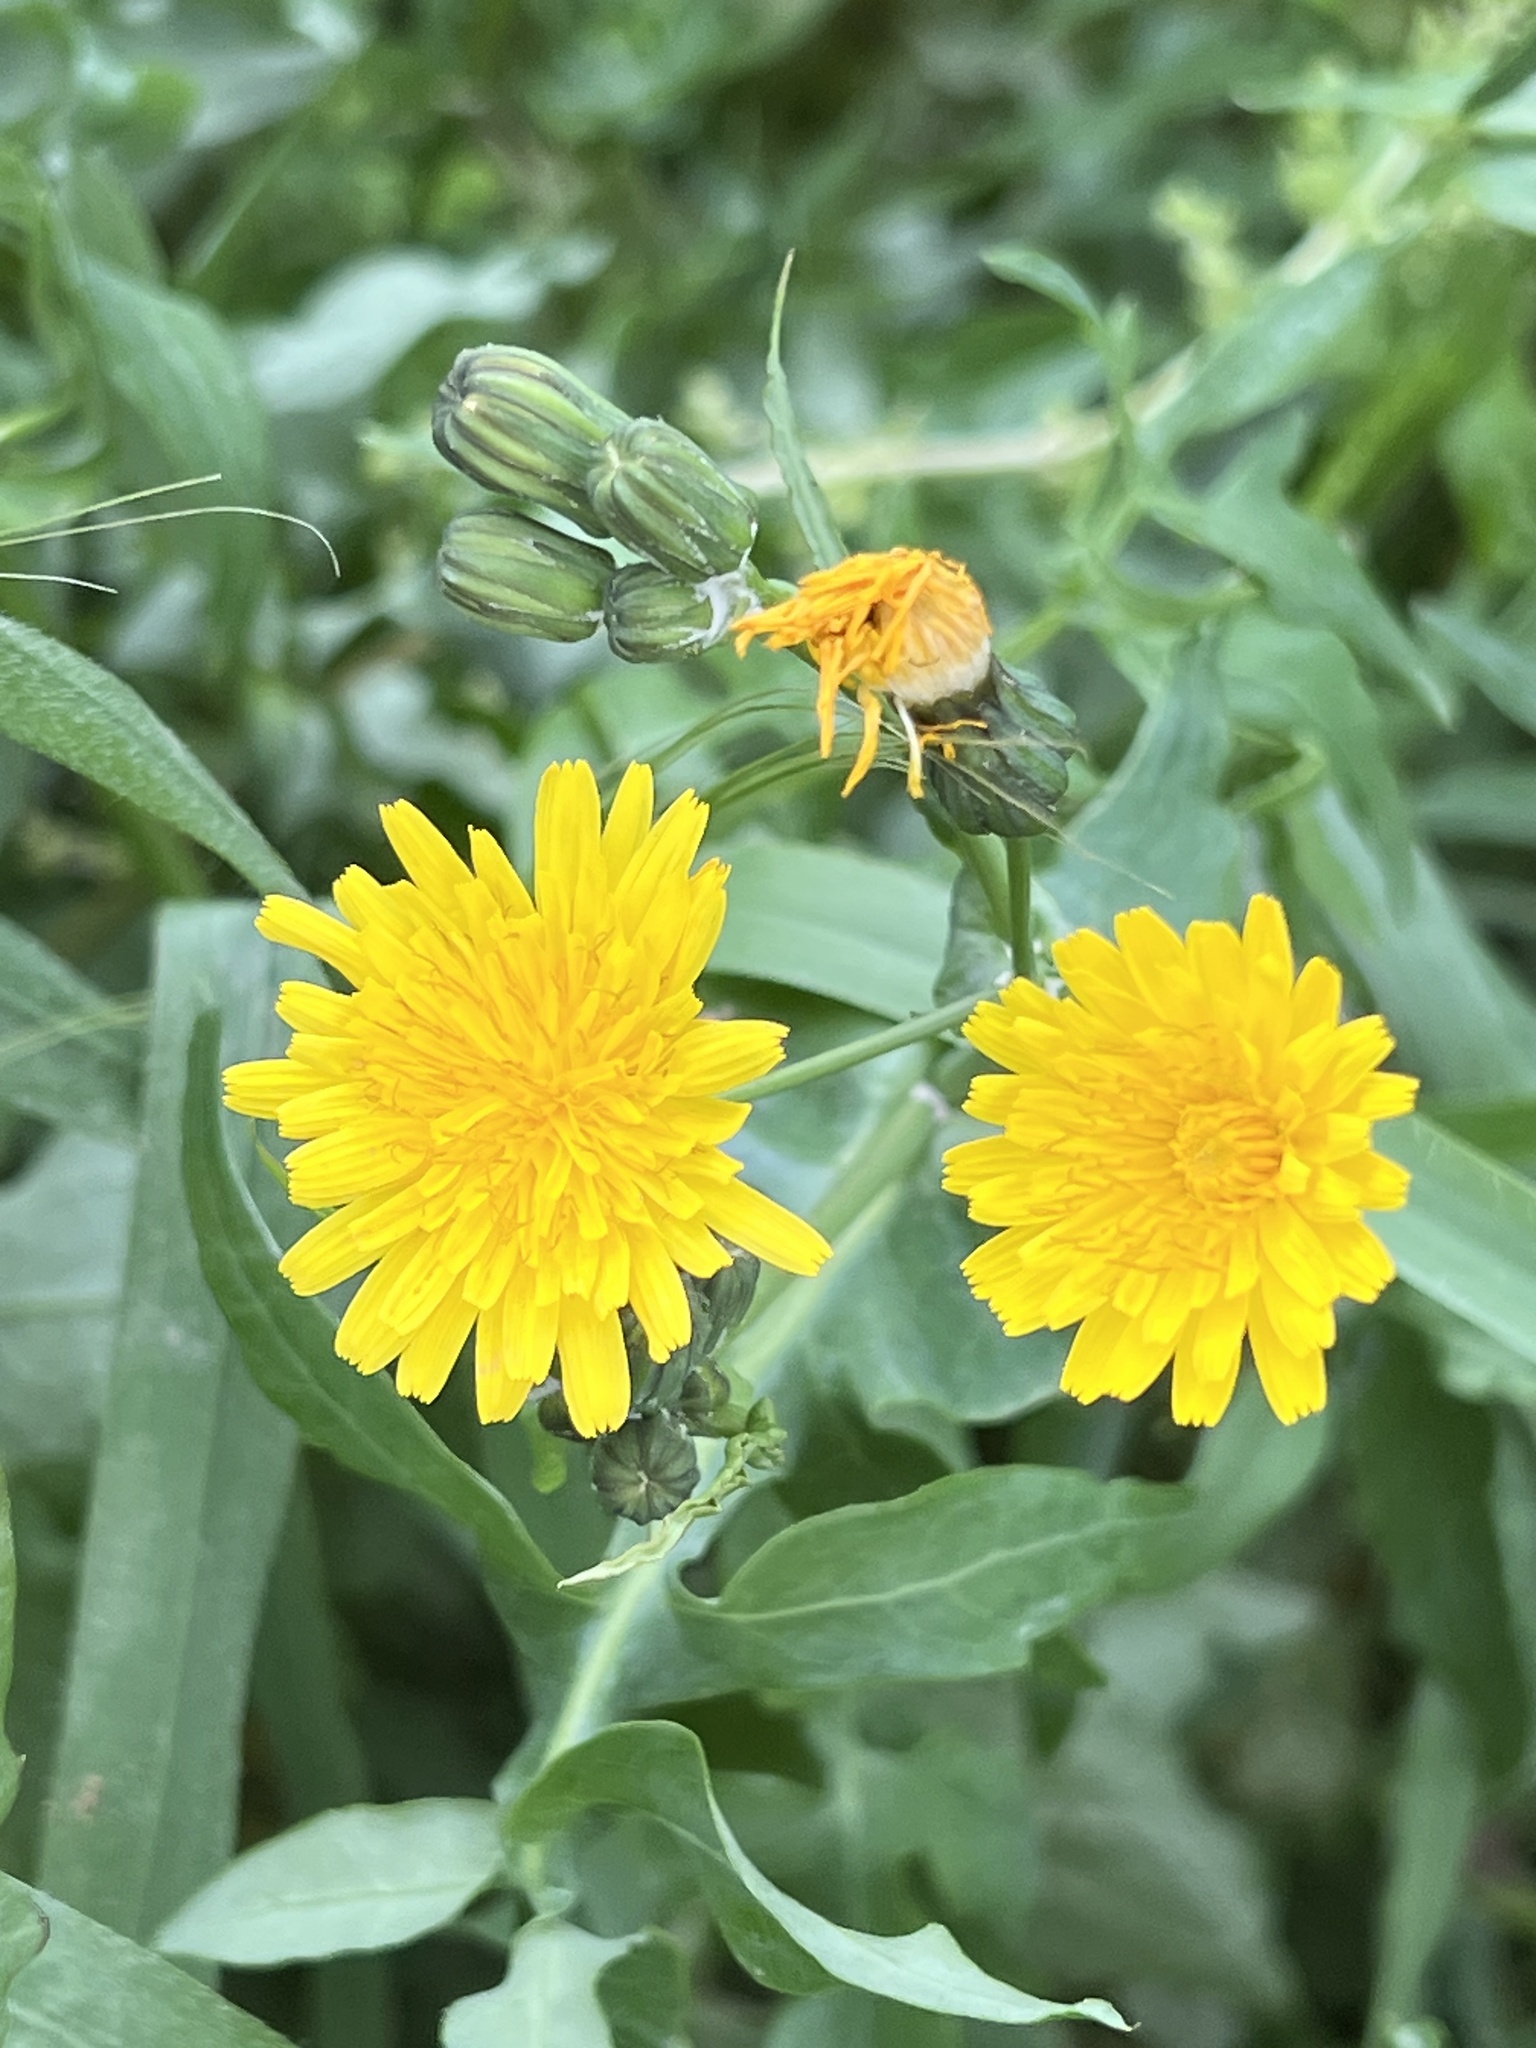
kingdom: Plantae
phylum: Tracheophyta
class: Magnoliopsida
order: Asterales
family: Asteraceae
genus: Sonchus
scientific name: Sonchus tenerrimus
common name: Clammy sowthistle
